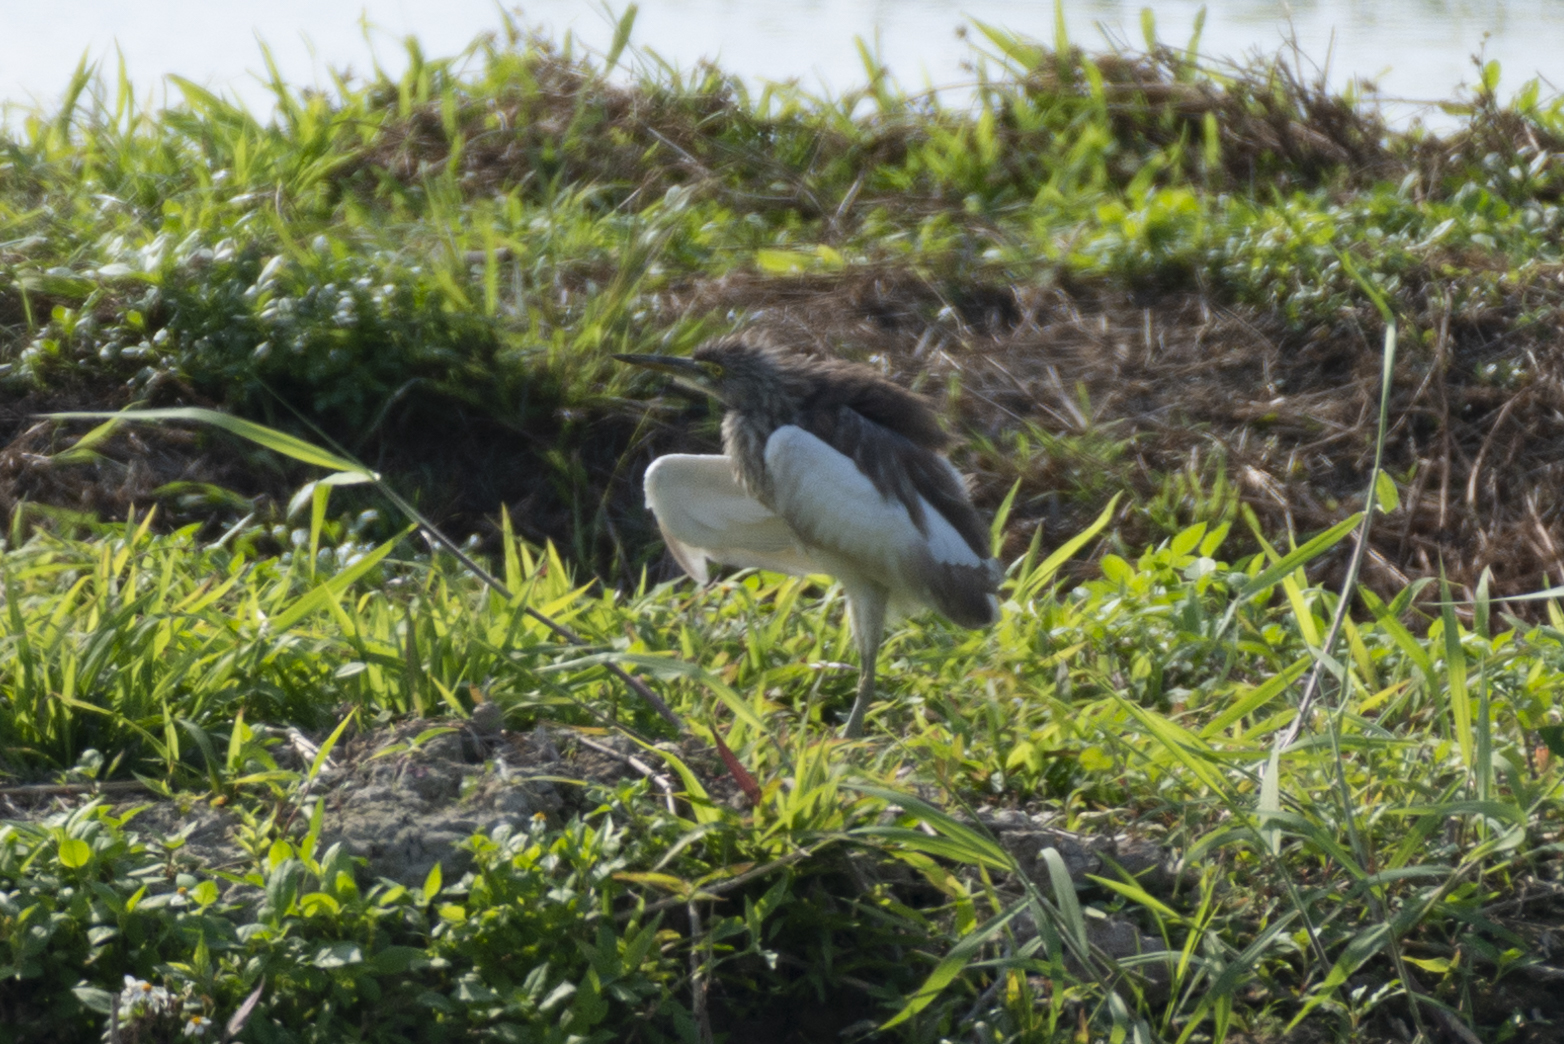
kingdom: Animalia
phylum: Chordata
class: Aves
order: Pelecaniformes
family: Ardeidae
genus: Ardeola
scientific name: Ardeola bacchus
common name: Chinese pond heron
